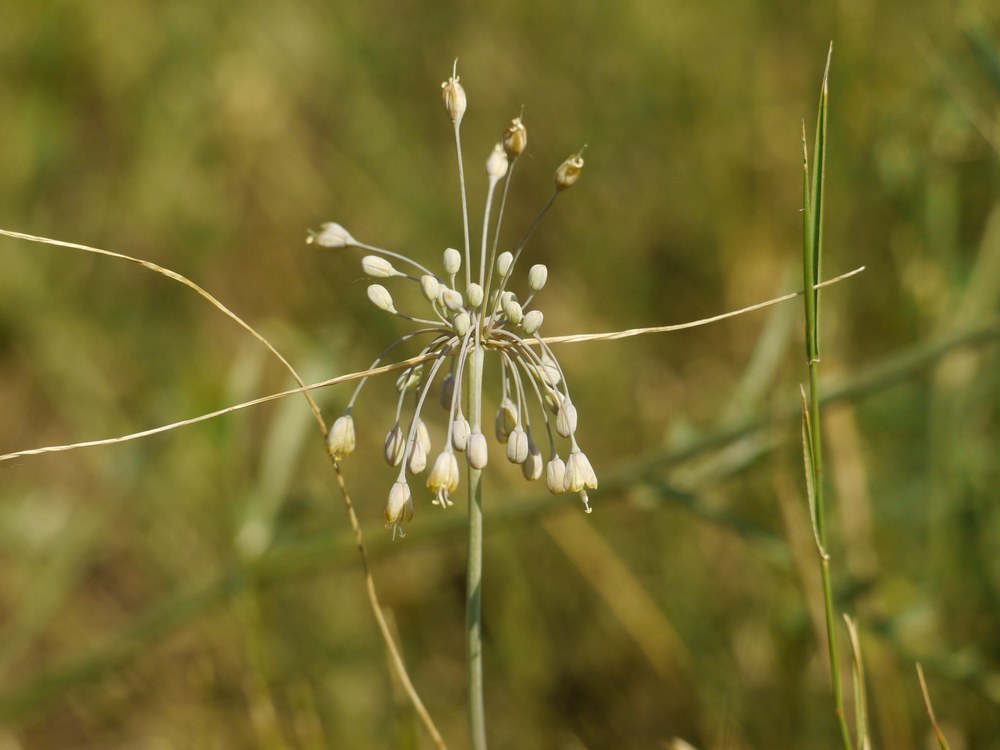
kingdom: Plantae
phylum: Tracheophyta
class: Liliopsida
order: Asparagales
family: Amaryllidaceae
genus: Allium
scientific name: Allium flavum
